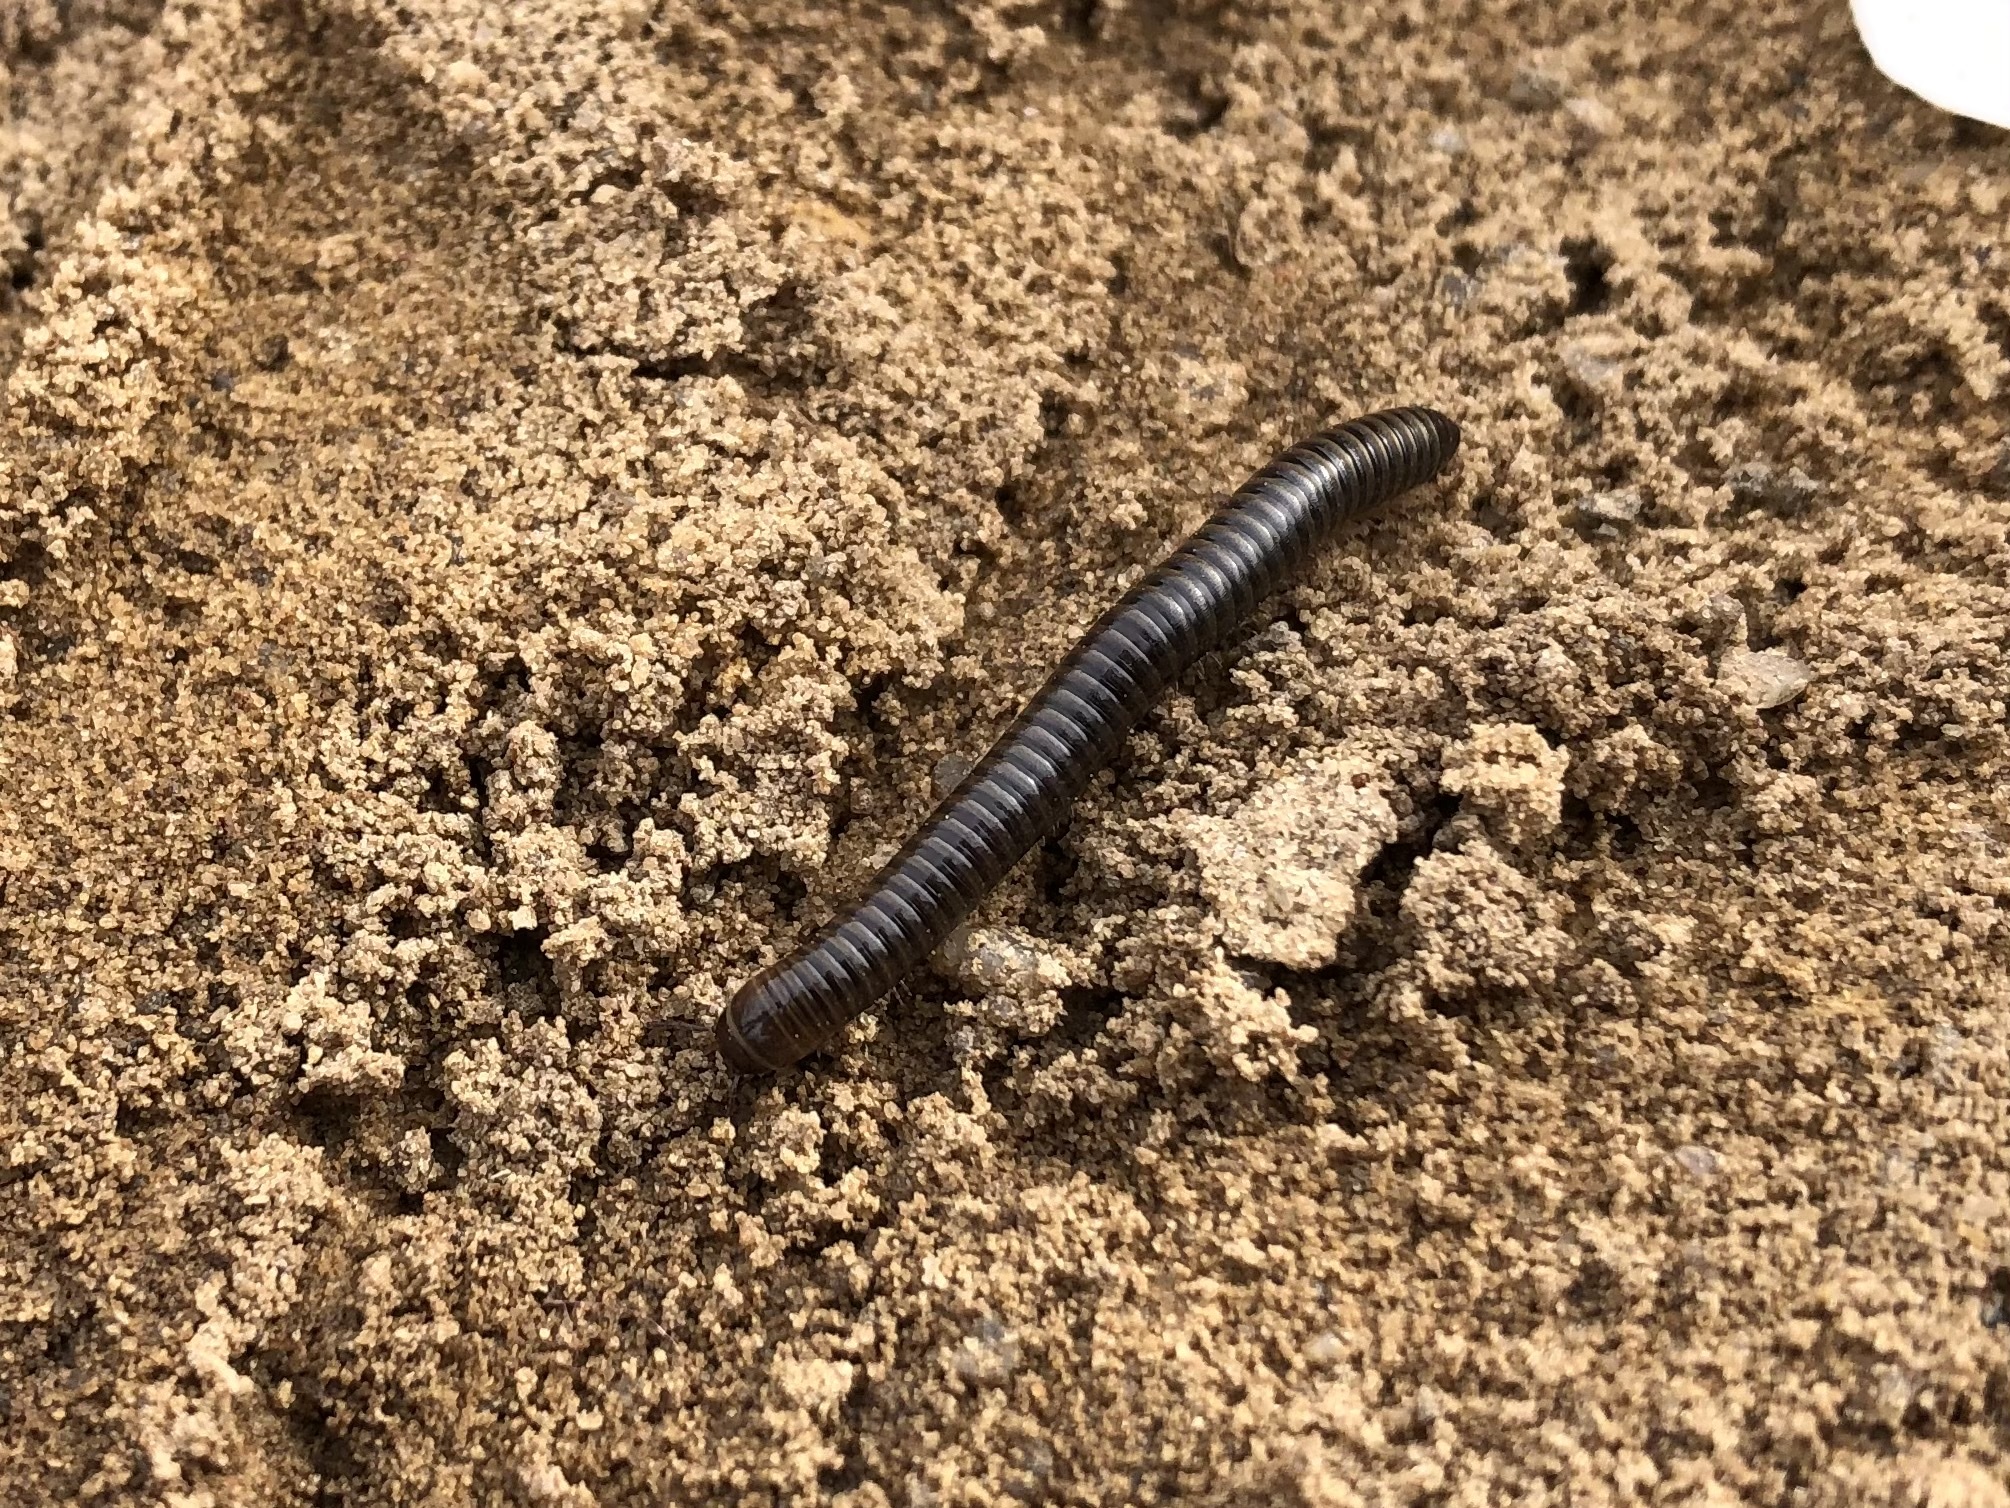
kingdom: Animalia
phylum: Arthropoda
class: Diplopoda
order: Julida
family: Julidae
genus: Cylindroiulus
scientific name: Cylindroiulus caeruleocinctus
